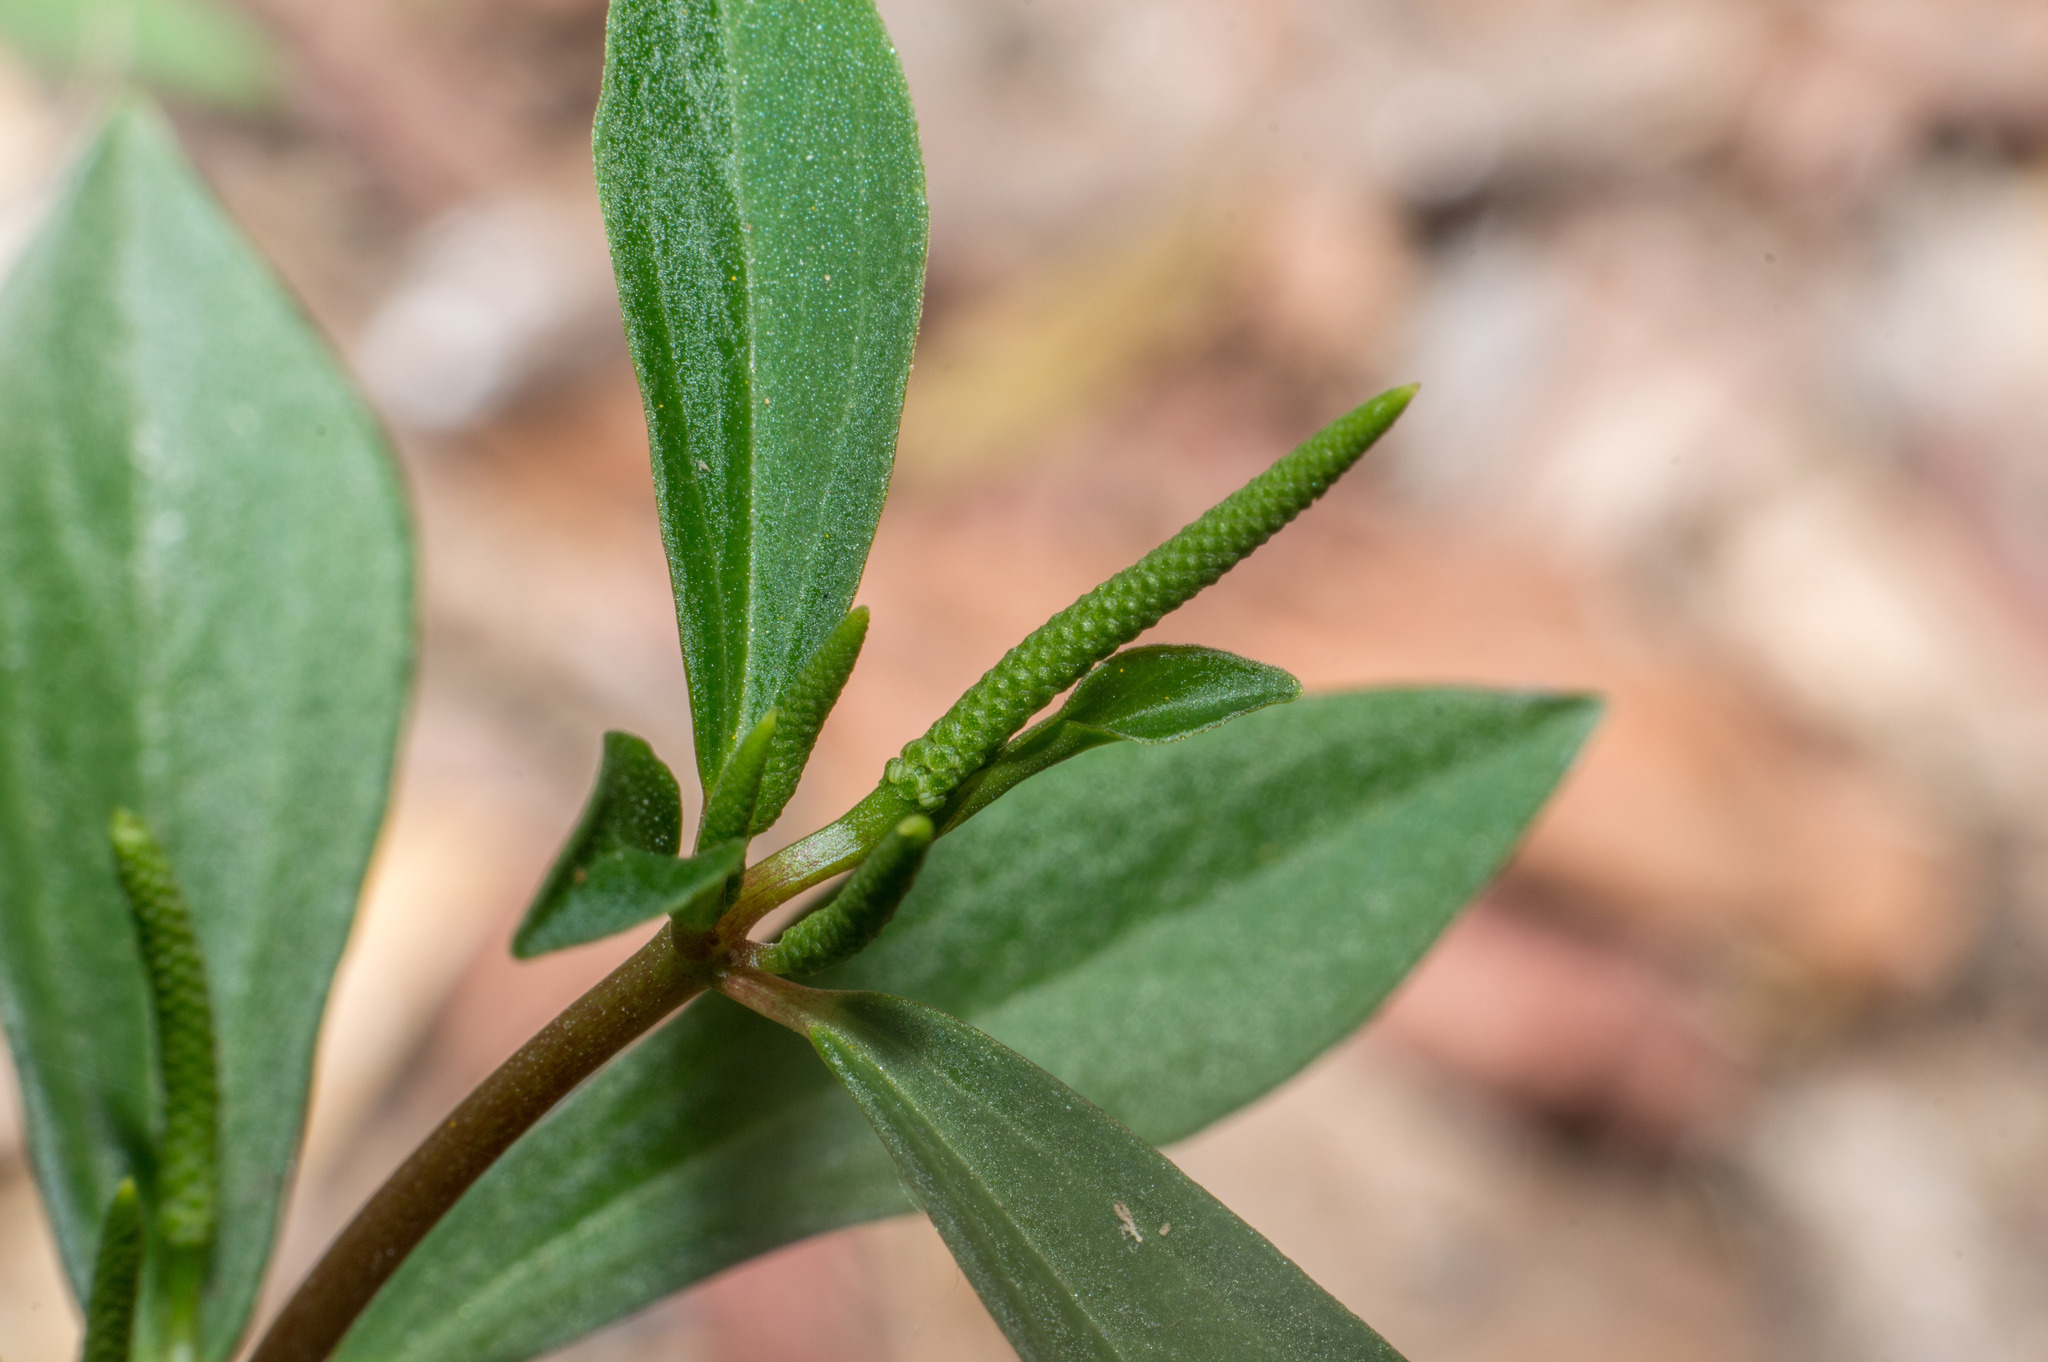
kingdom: Plantae
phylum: Tracheophyta
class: Magnoliopsida
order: Piperales
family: Piperaceae
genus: Peperomia
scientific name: Peperomia comarapana
